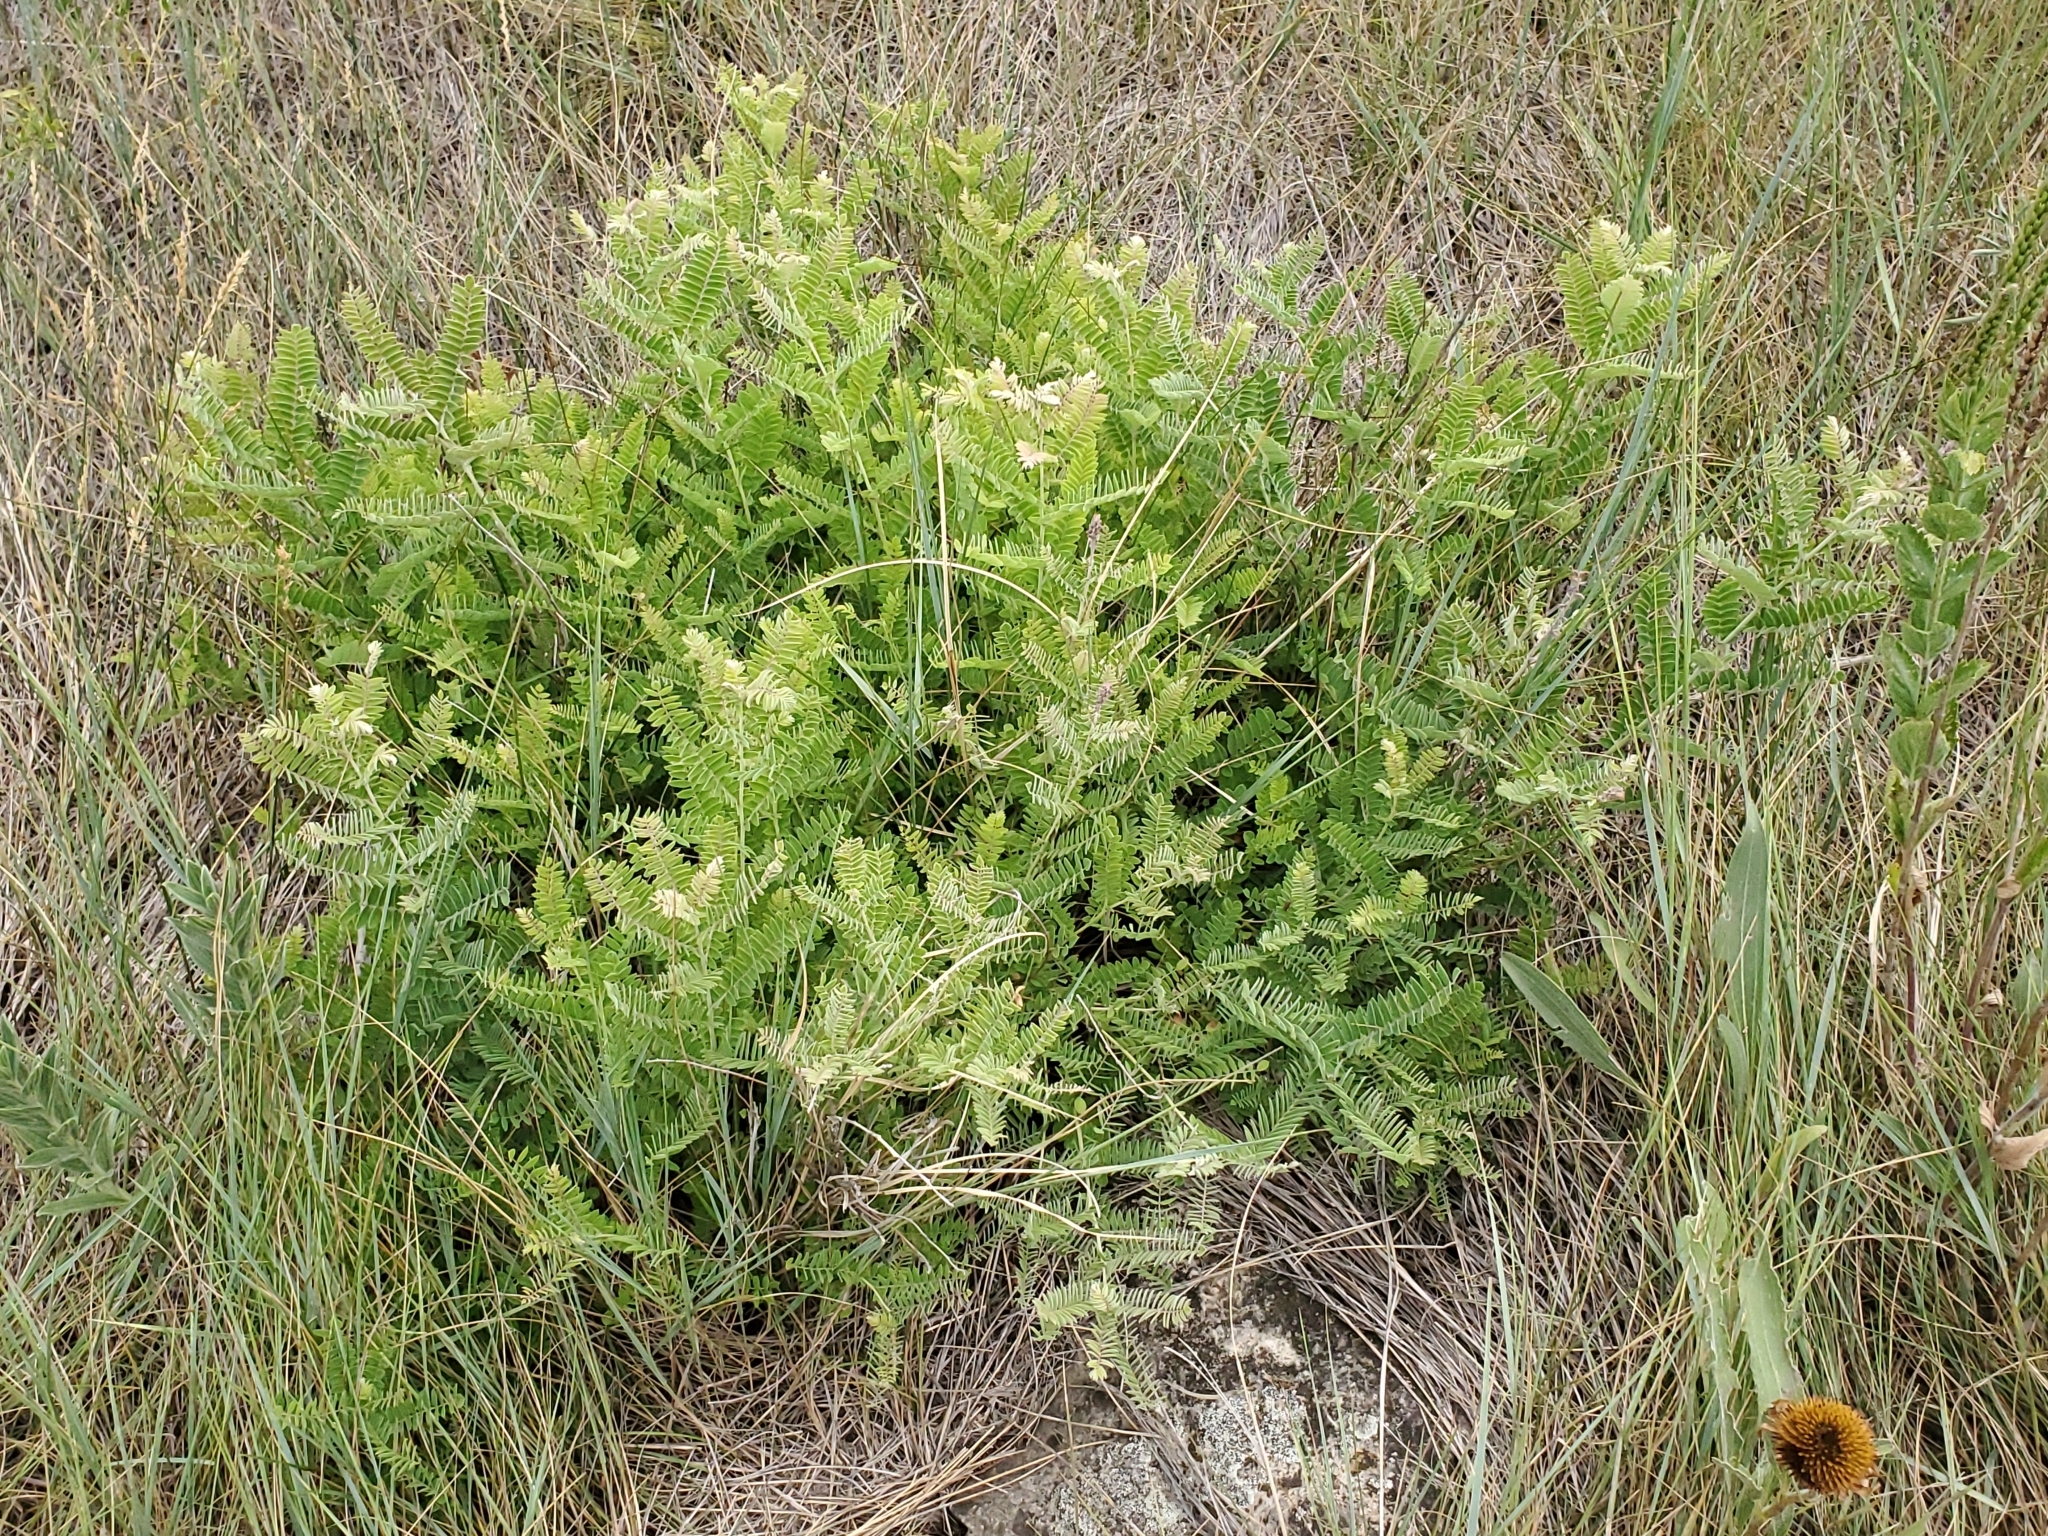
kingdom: Plantae
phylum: Tracheophyta
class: Magnoliopsida
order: Fabales
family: Fabaceae
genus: Amorpha
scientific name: Amorpha canescens
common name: Leadplant
